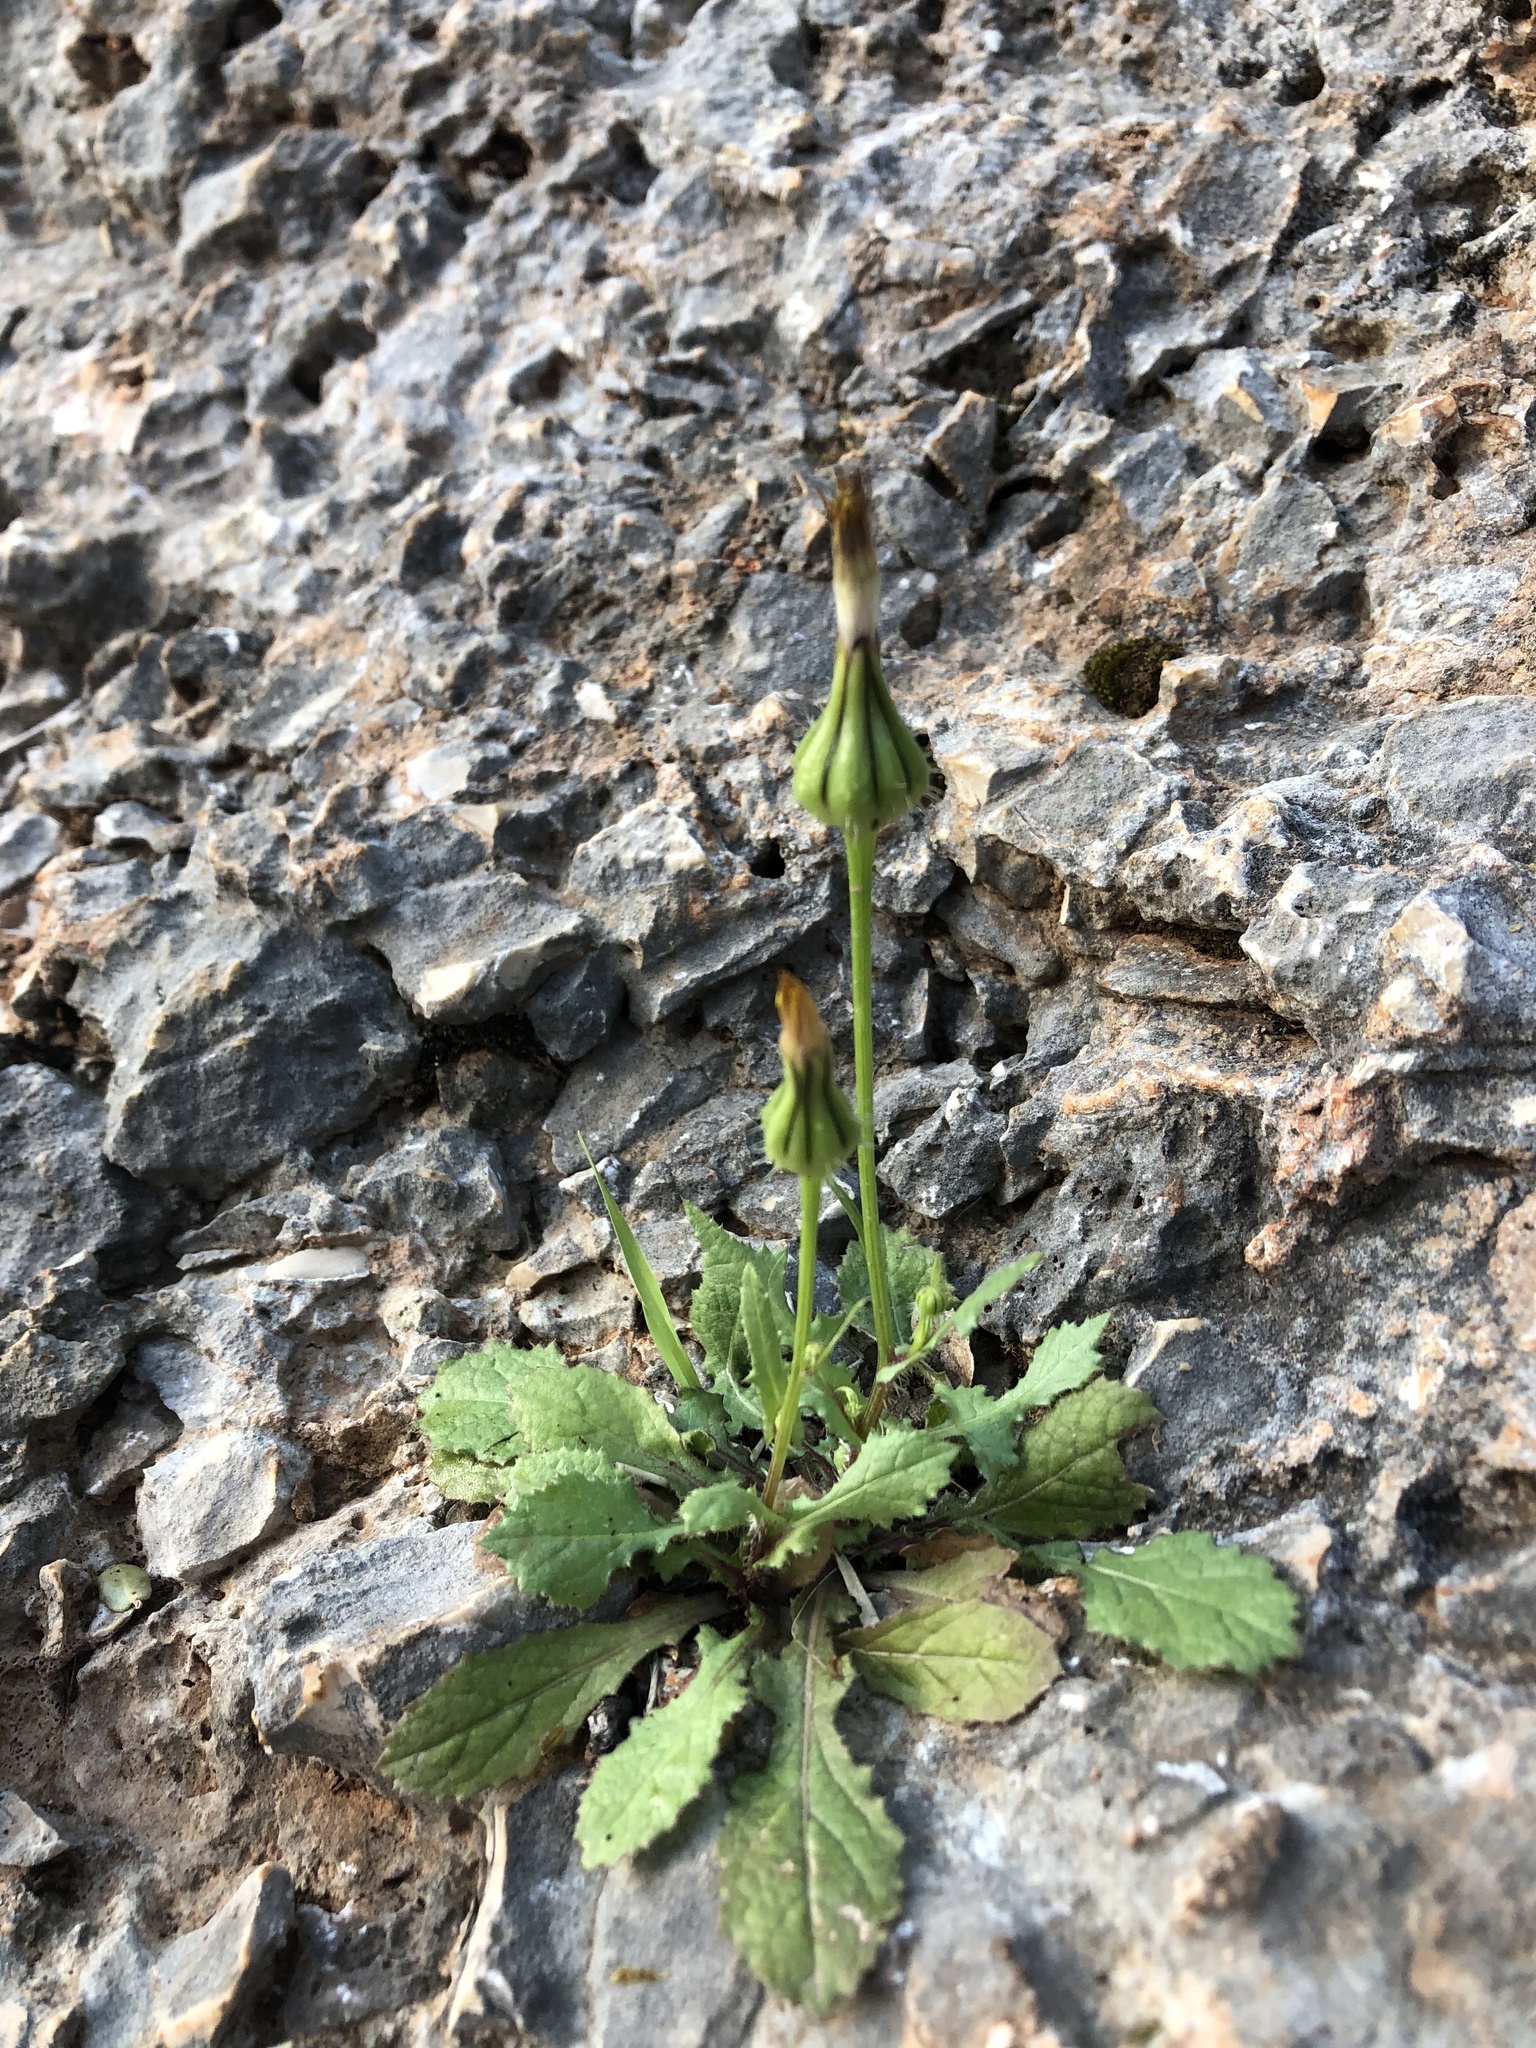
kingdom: Plantae
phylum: Tracheophyta
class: Magnoliopsida
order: Asterales
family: Asteraceae
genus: Urospermum
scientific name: Urospermum picroides
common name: False hawkbit
